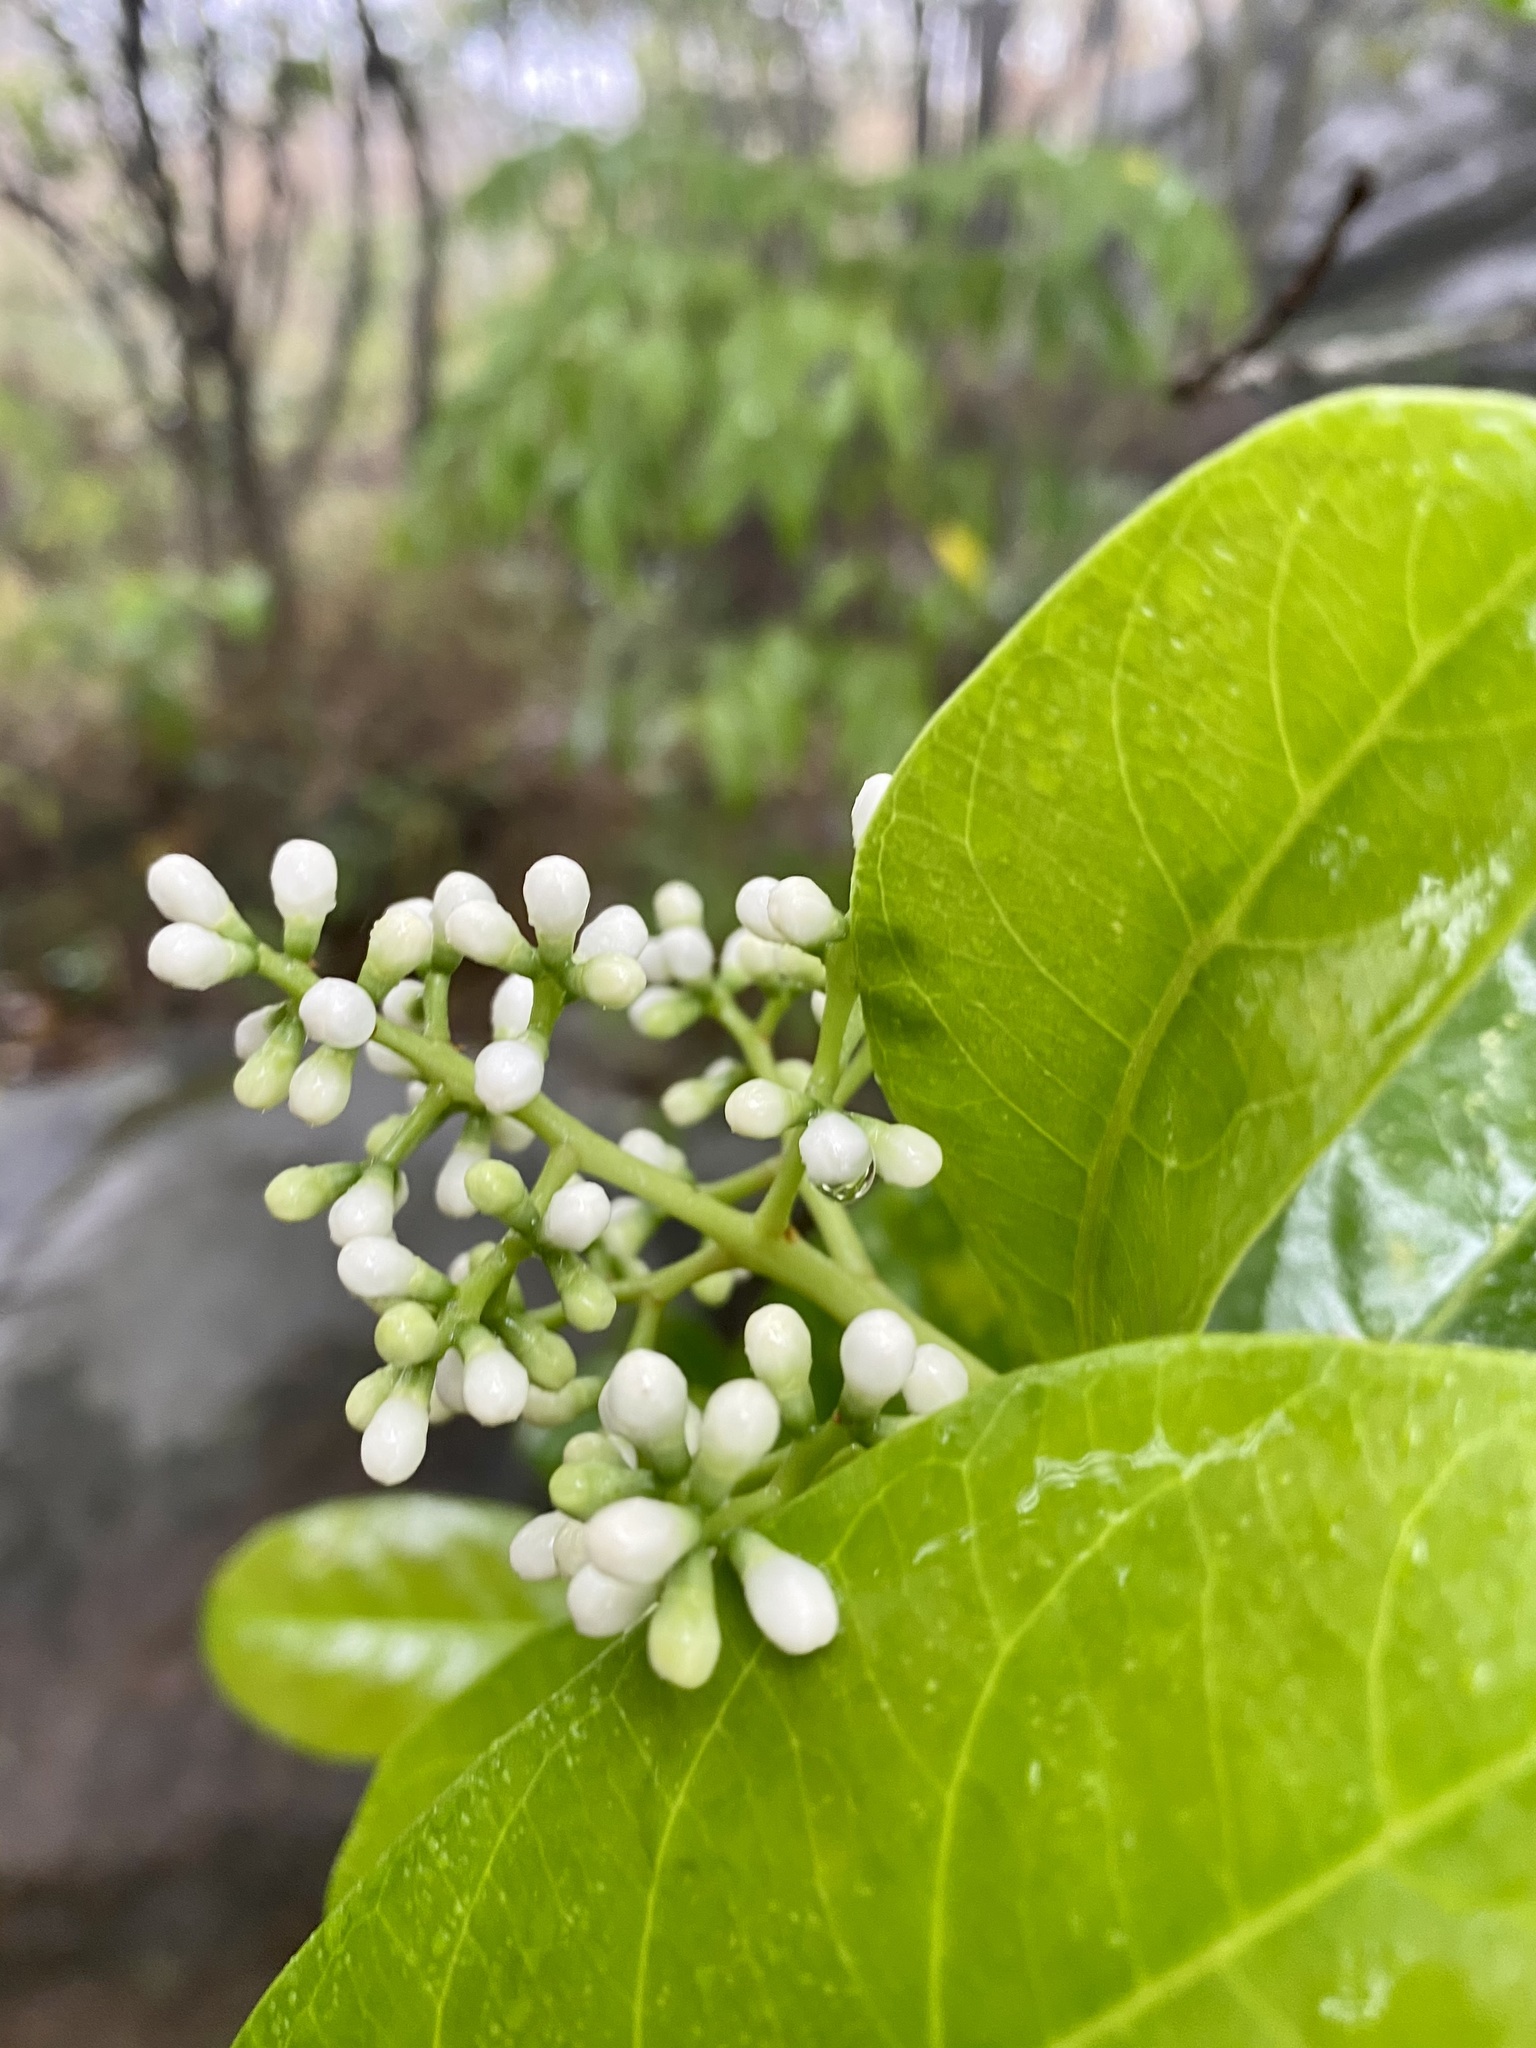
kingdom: Plantae
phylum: Tracheophyta
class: Magnoliopsida
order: Dipsacales
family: Viburnaceae
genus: Viburnum
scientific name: Viburnum odoratissimum
